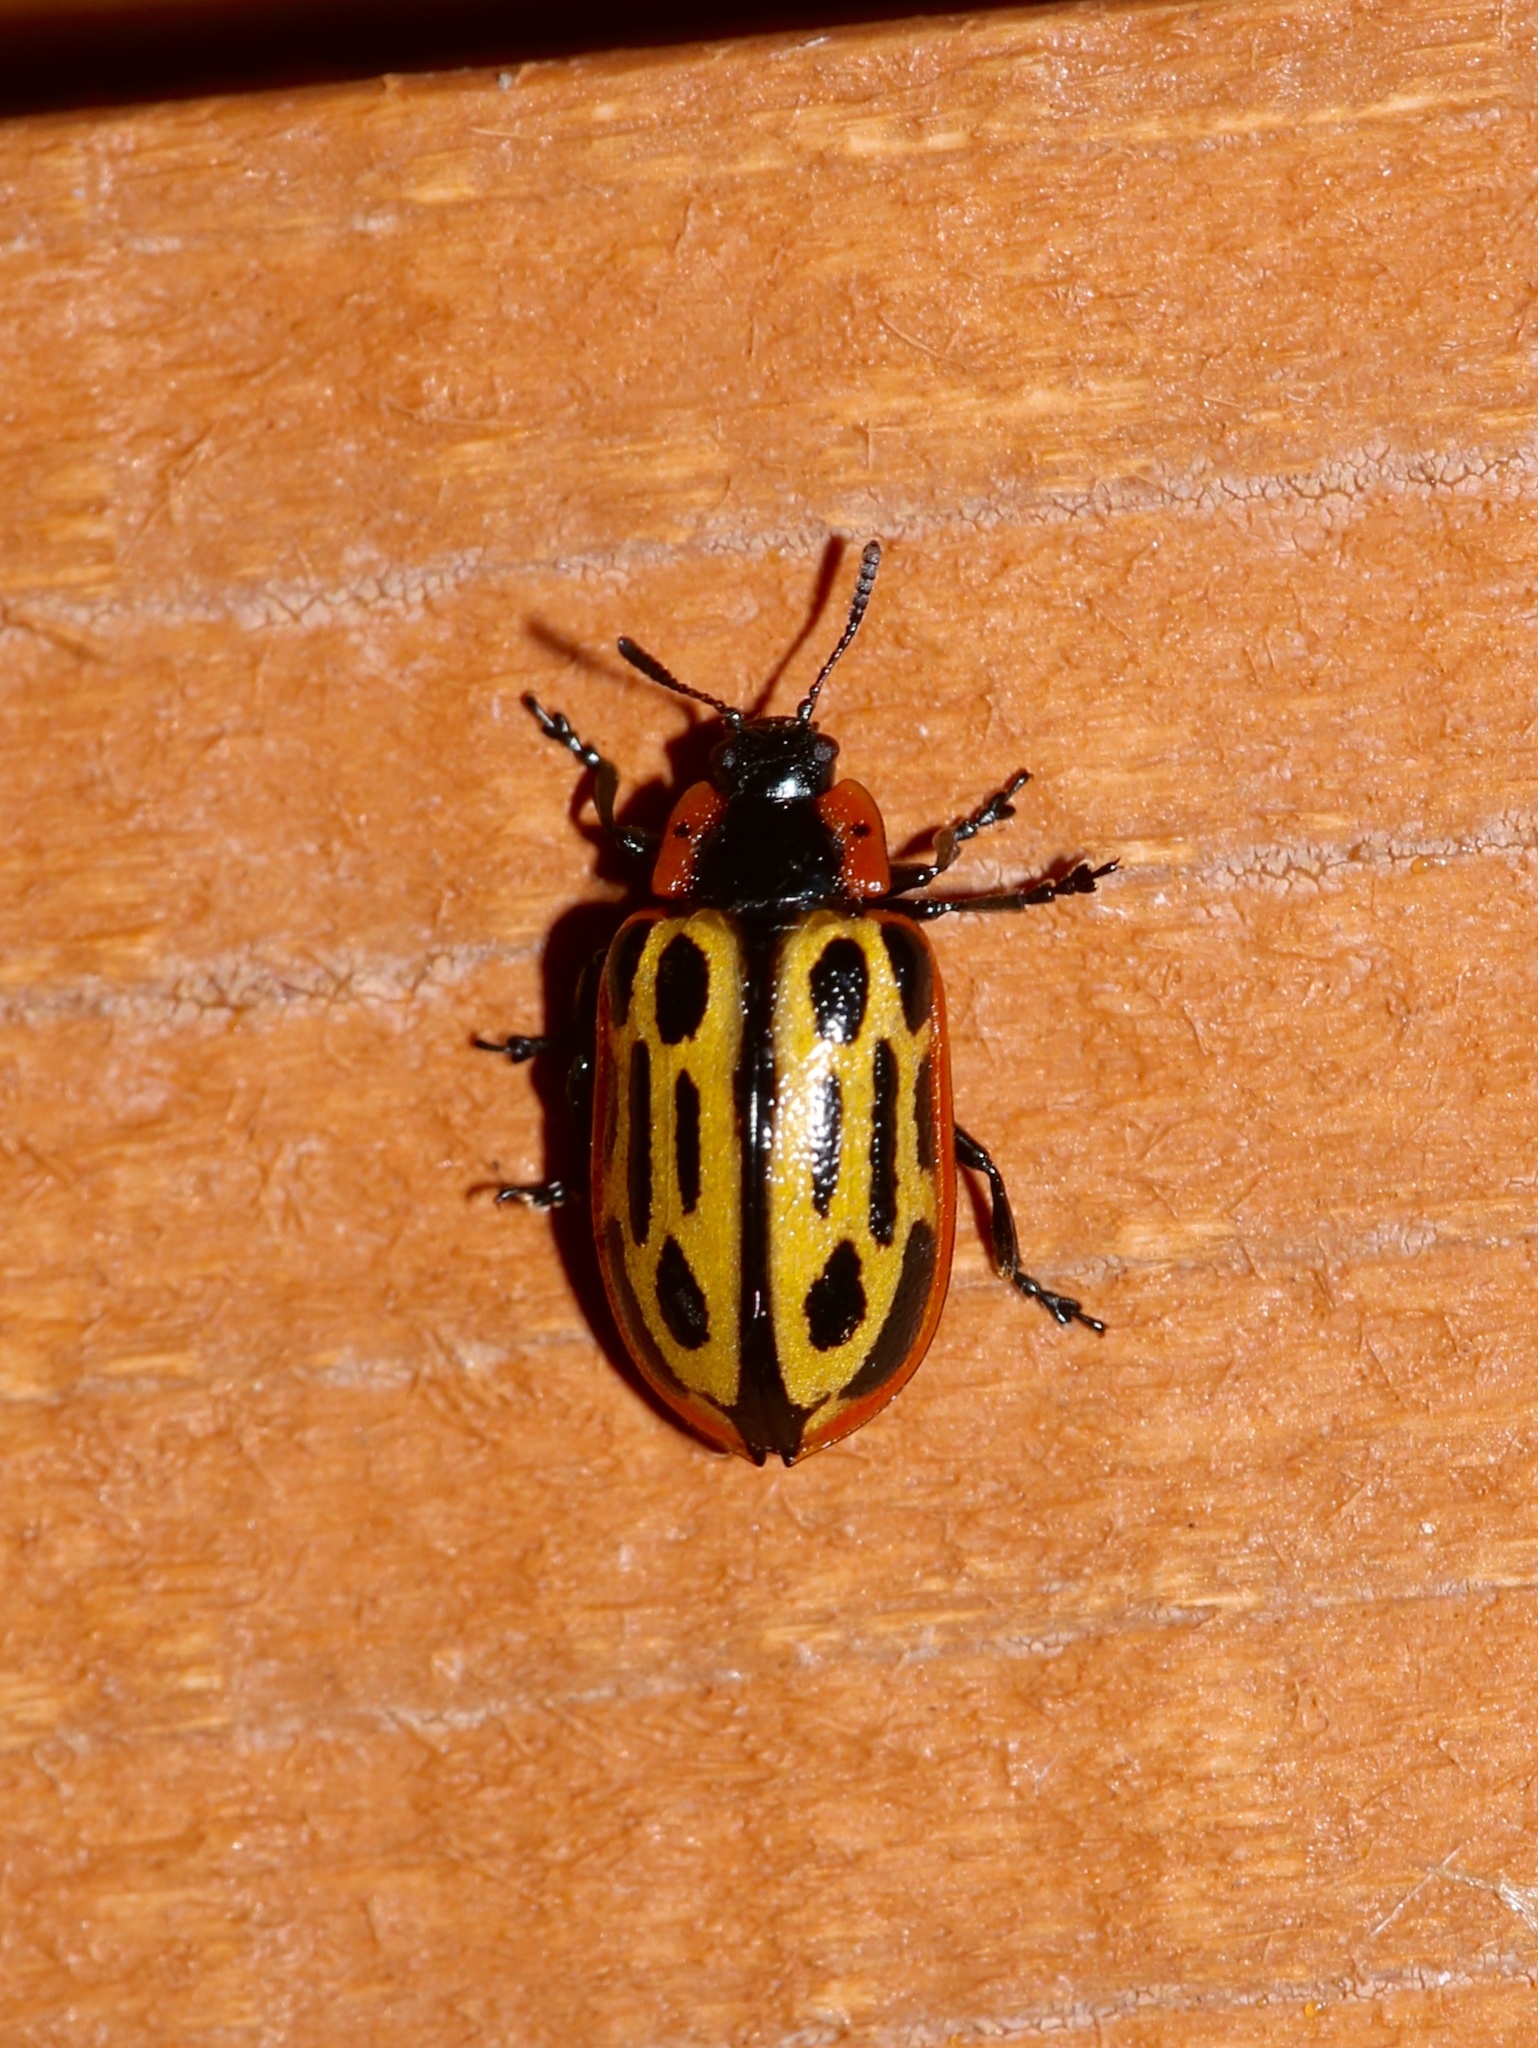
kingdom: Animalia
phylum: Arthropoda
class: Insecta
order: Coleoptera
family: Chrysomelidae
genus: Aethiopocassis
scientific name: Aethiopocassis scripta
